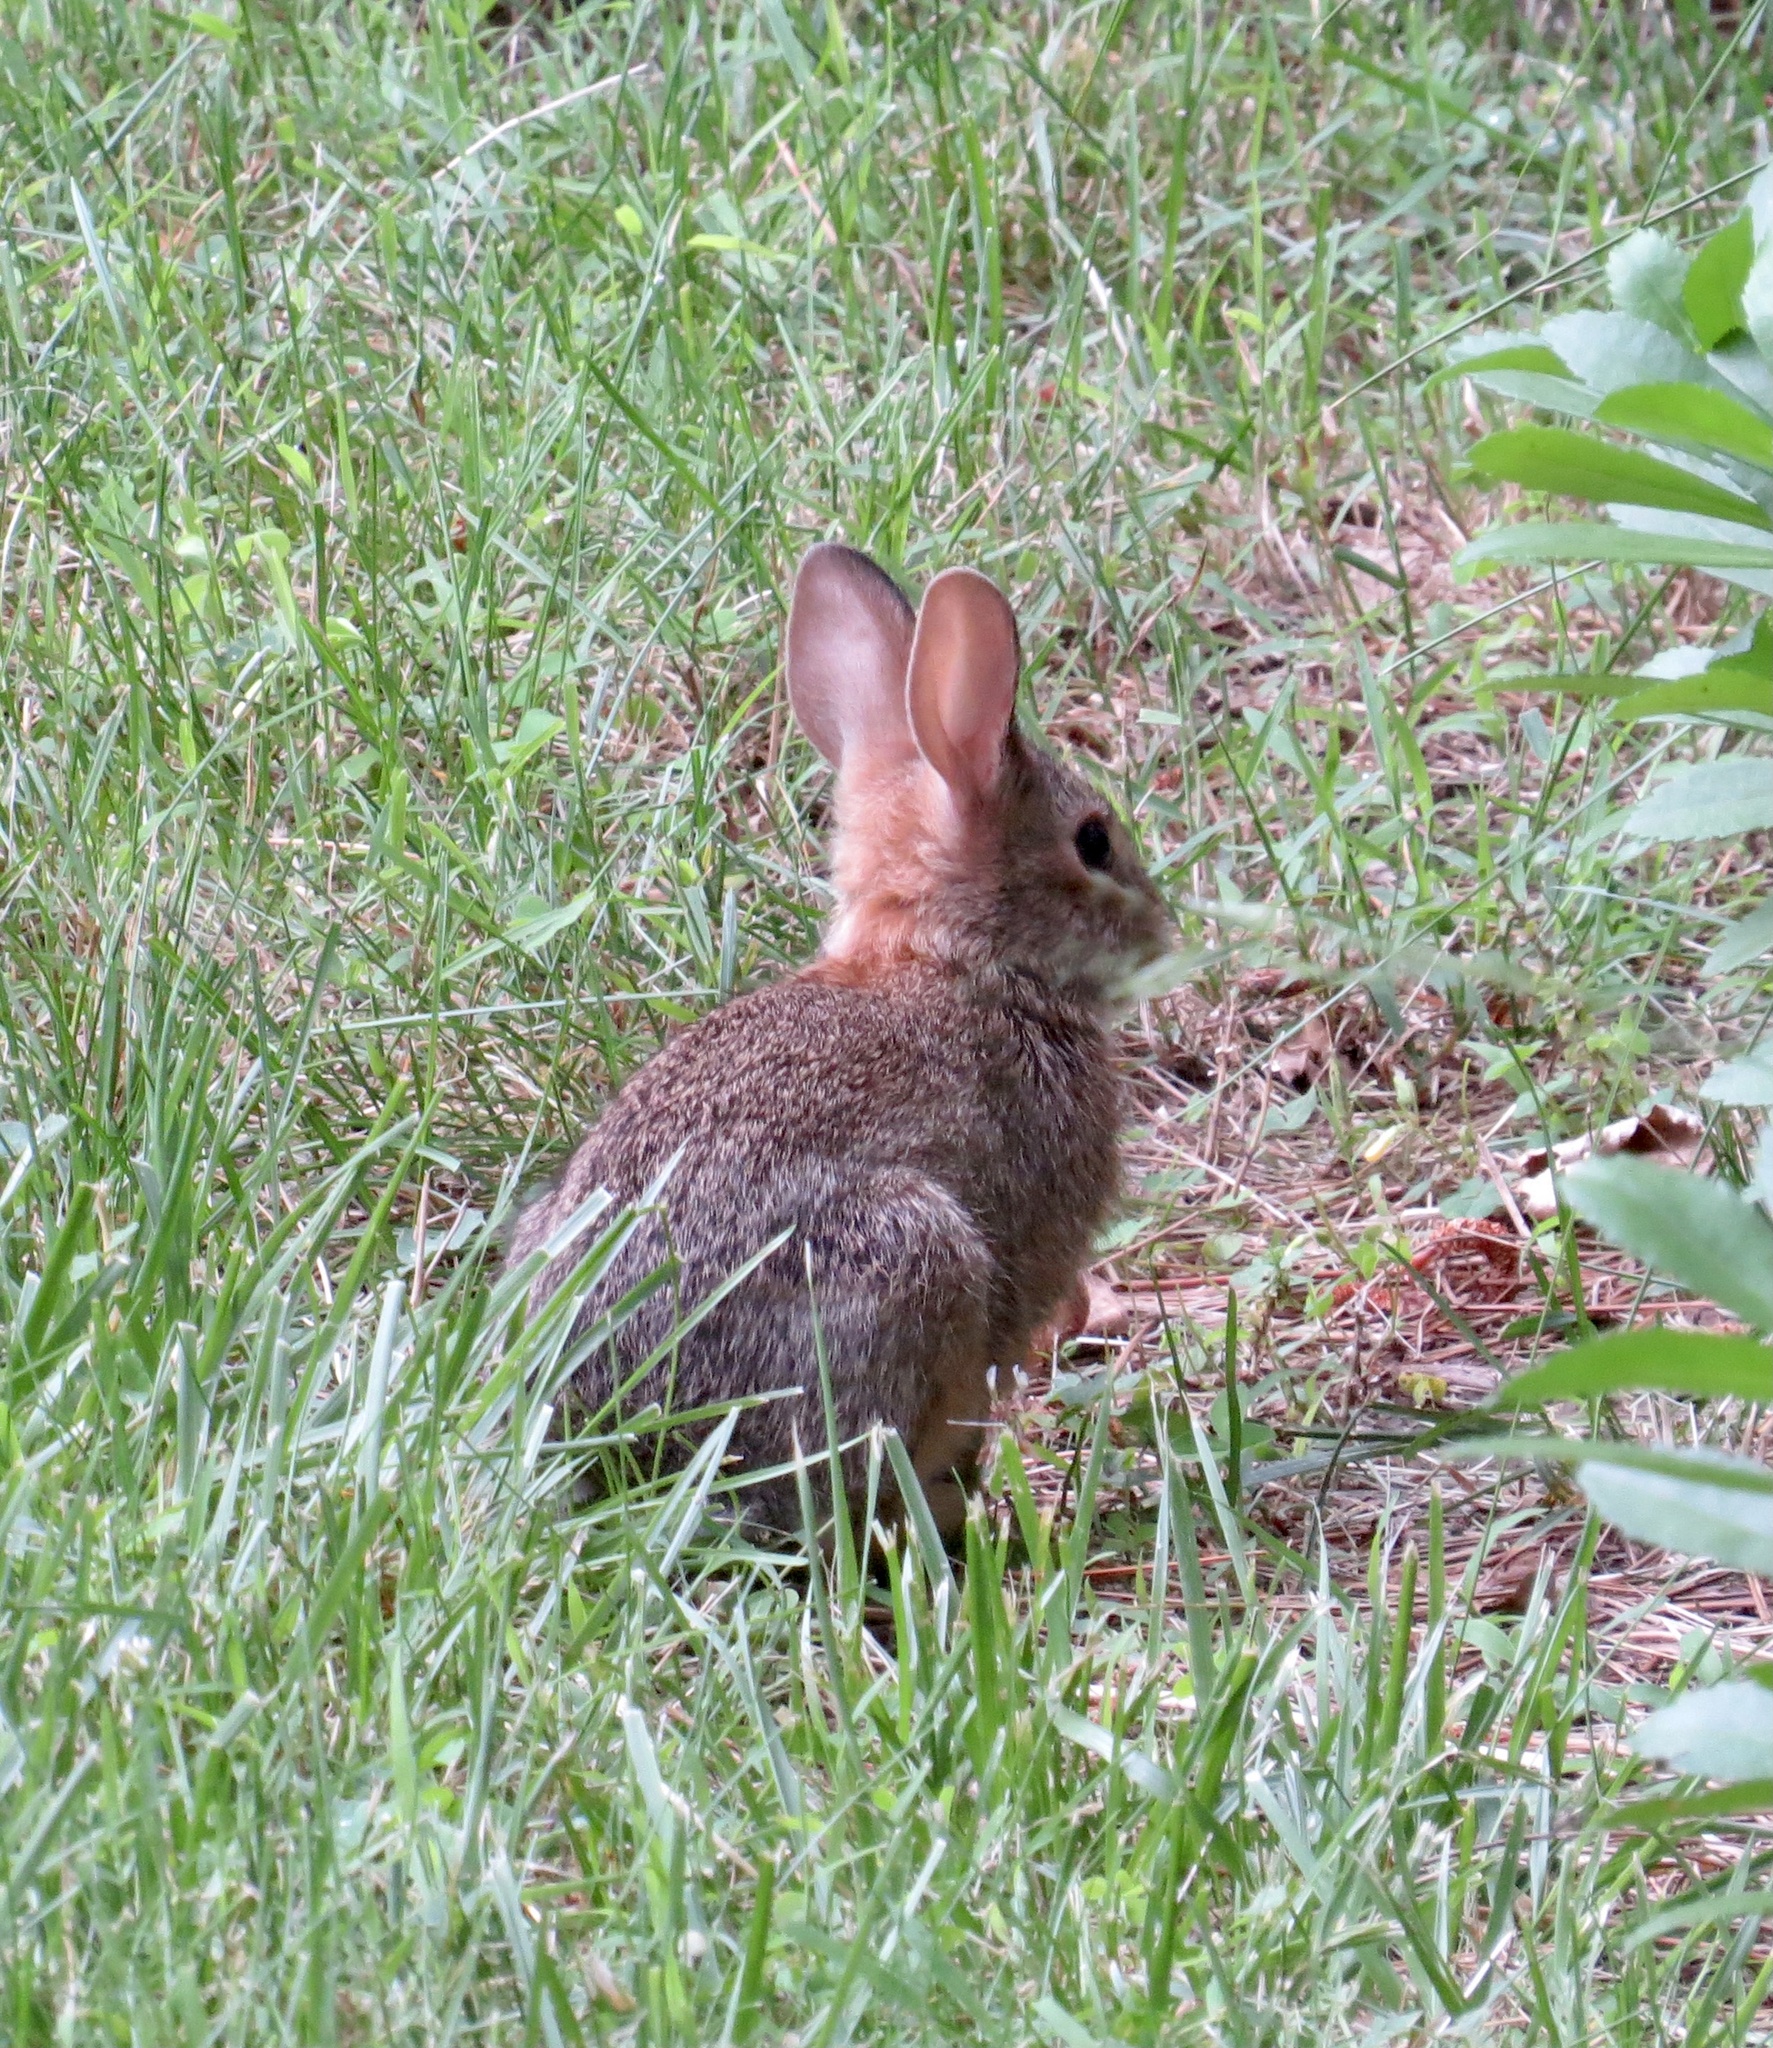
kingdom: Animalia
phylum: Chordata
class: Mammalia
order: Lagomorpha
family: Leporidae
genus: Sylvilagus
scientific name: Sylvilagus floridanus
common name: Eastern cottontail
